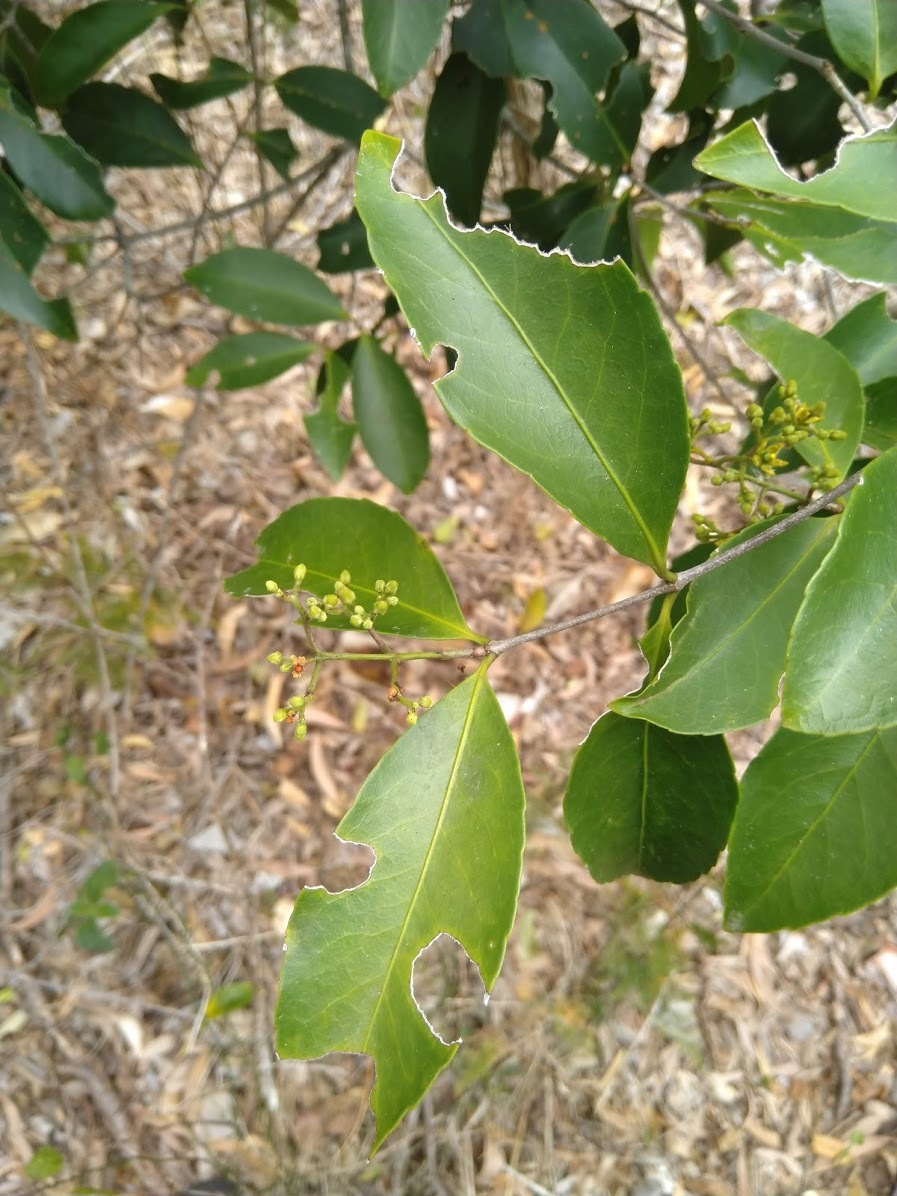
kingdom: Plantae
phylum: Tracheophyta
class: Magnoliopsida
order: Celastrales
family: Celastraceae
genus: Loeseneriella
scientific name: Loeseneriella barbata
